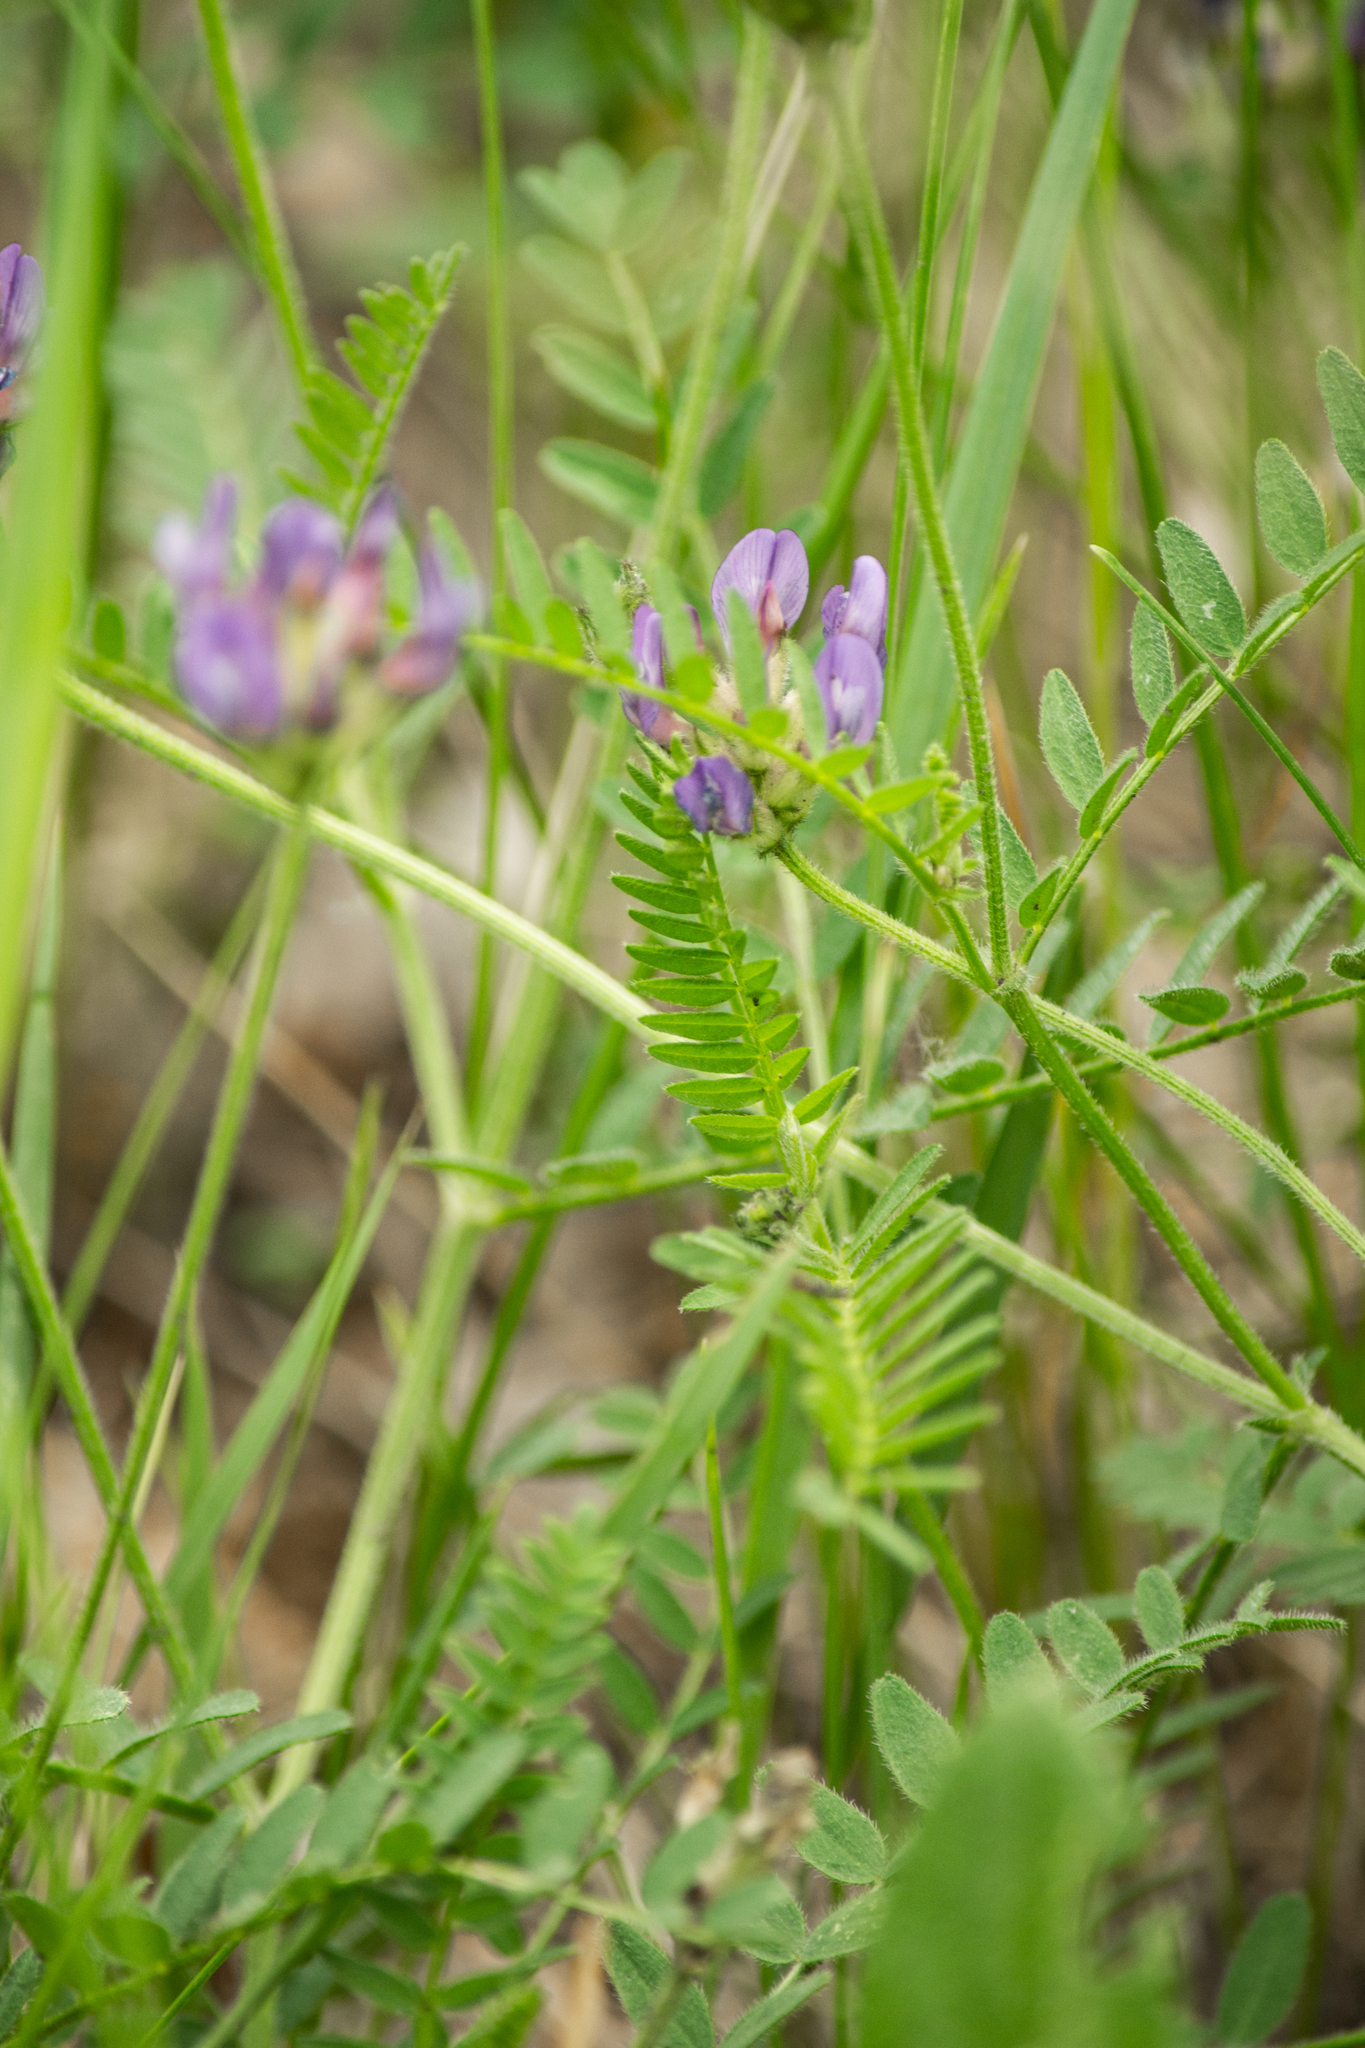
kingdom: Plantae
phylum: Tracheophyta
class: Magnoliopsida
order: Fabales
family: Fabaceae
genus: Astragalus
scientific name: Astragalus danicus
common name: Purple milk-vetch
